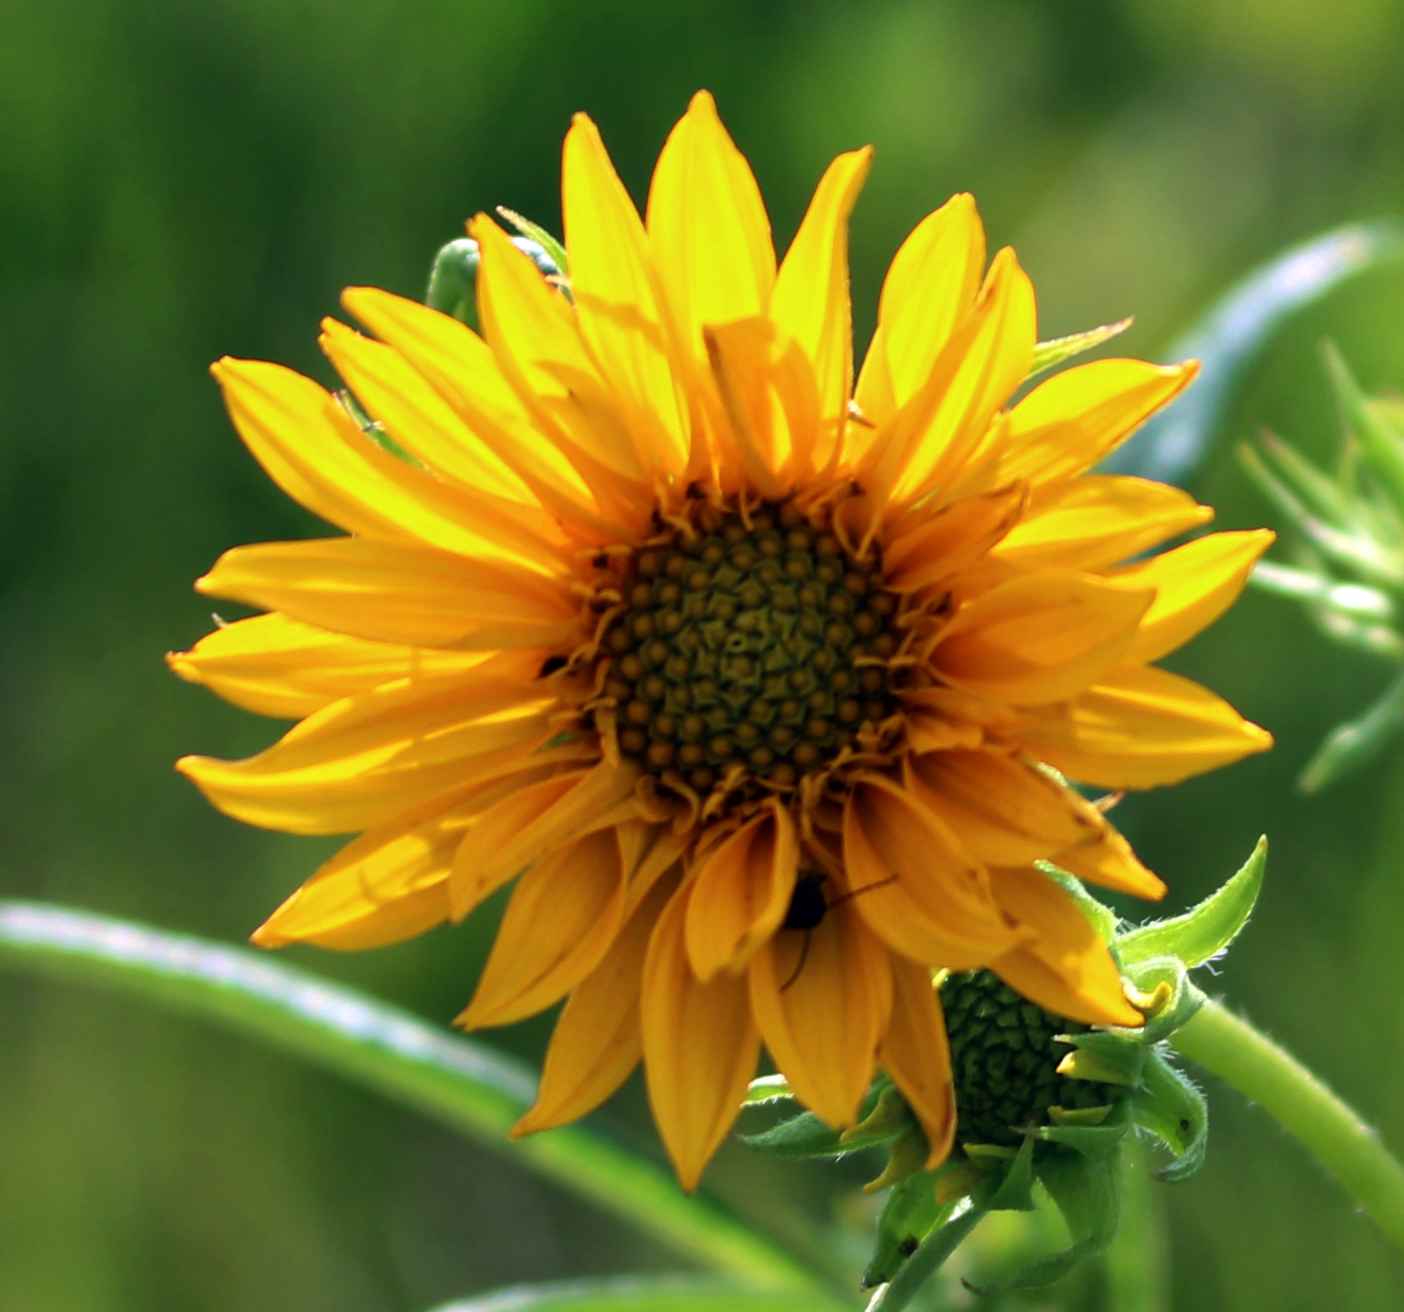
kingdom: Plantae
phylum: Tracheophyta
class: Magnoliopsida
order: Asterales
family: Asteraceae
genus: Helianthus
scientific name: Helianthus grosseserratus
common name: Sawtooth sunflower
